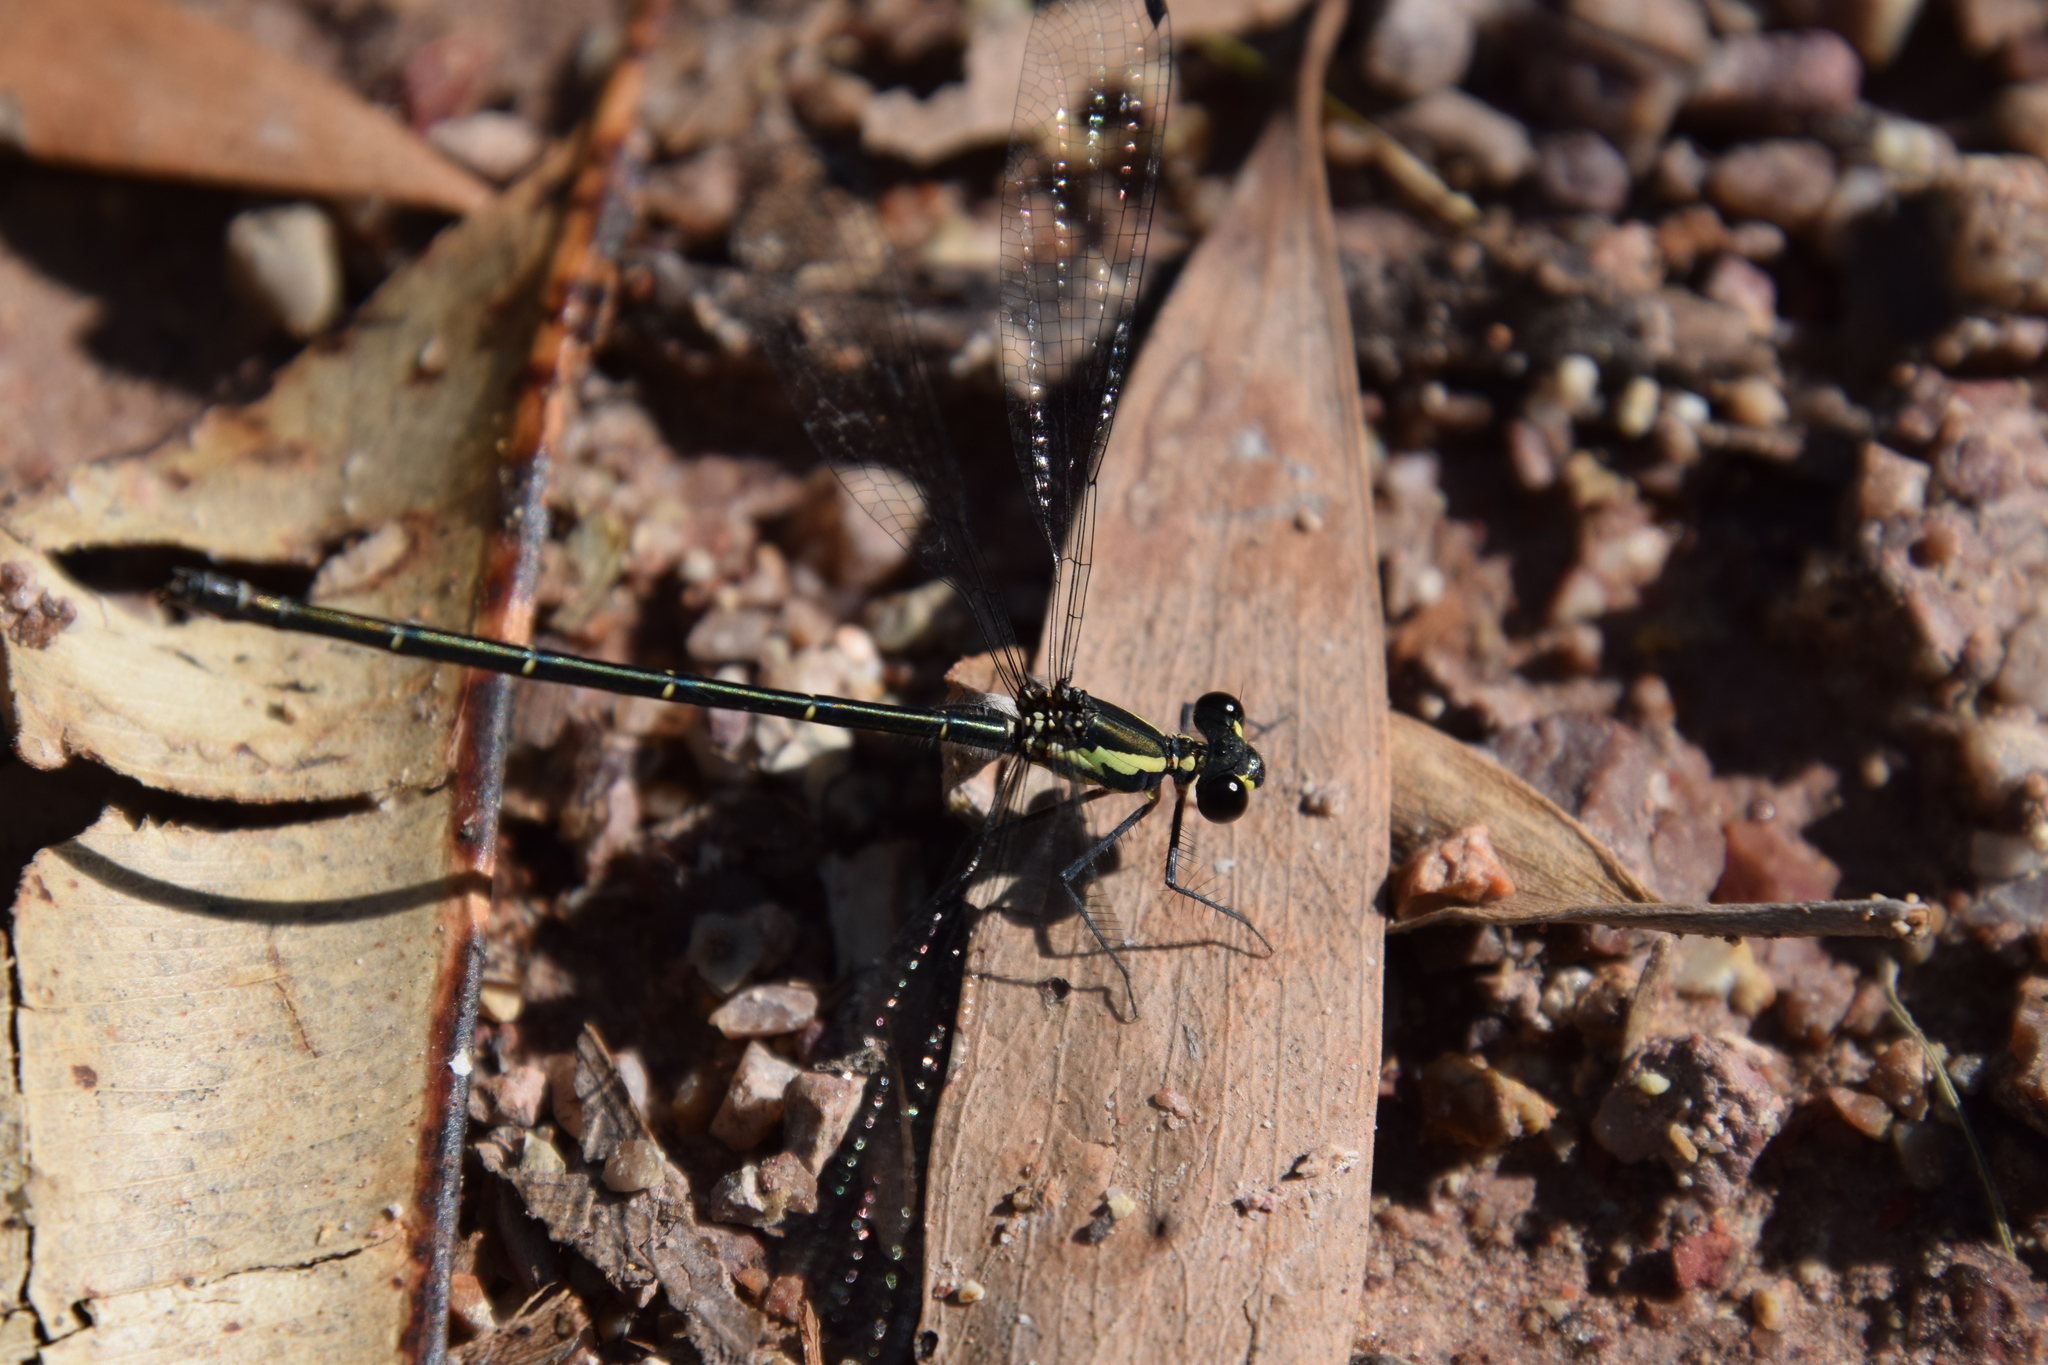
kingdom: Animalia
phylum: Arthropoda
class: Insecta
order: Odonata
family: Argiolestidae
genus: Austroargiolestes
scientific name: Austroargiolestes icteromelas
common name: Common flatwing
